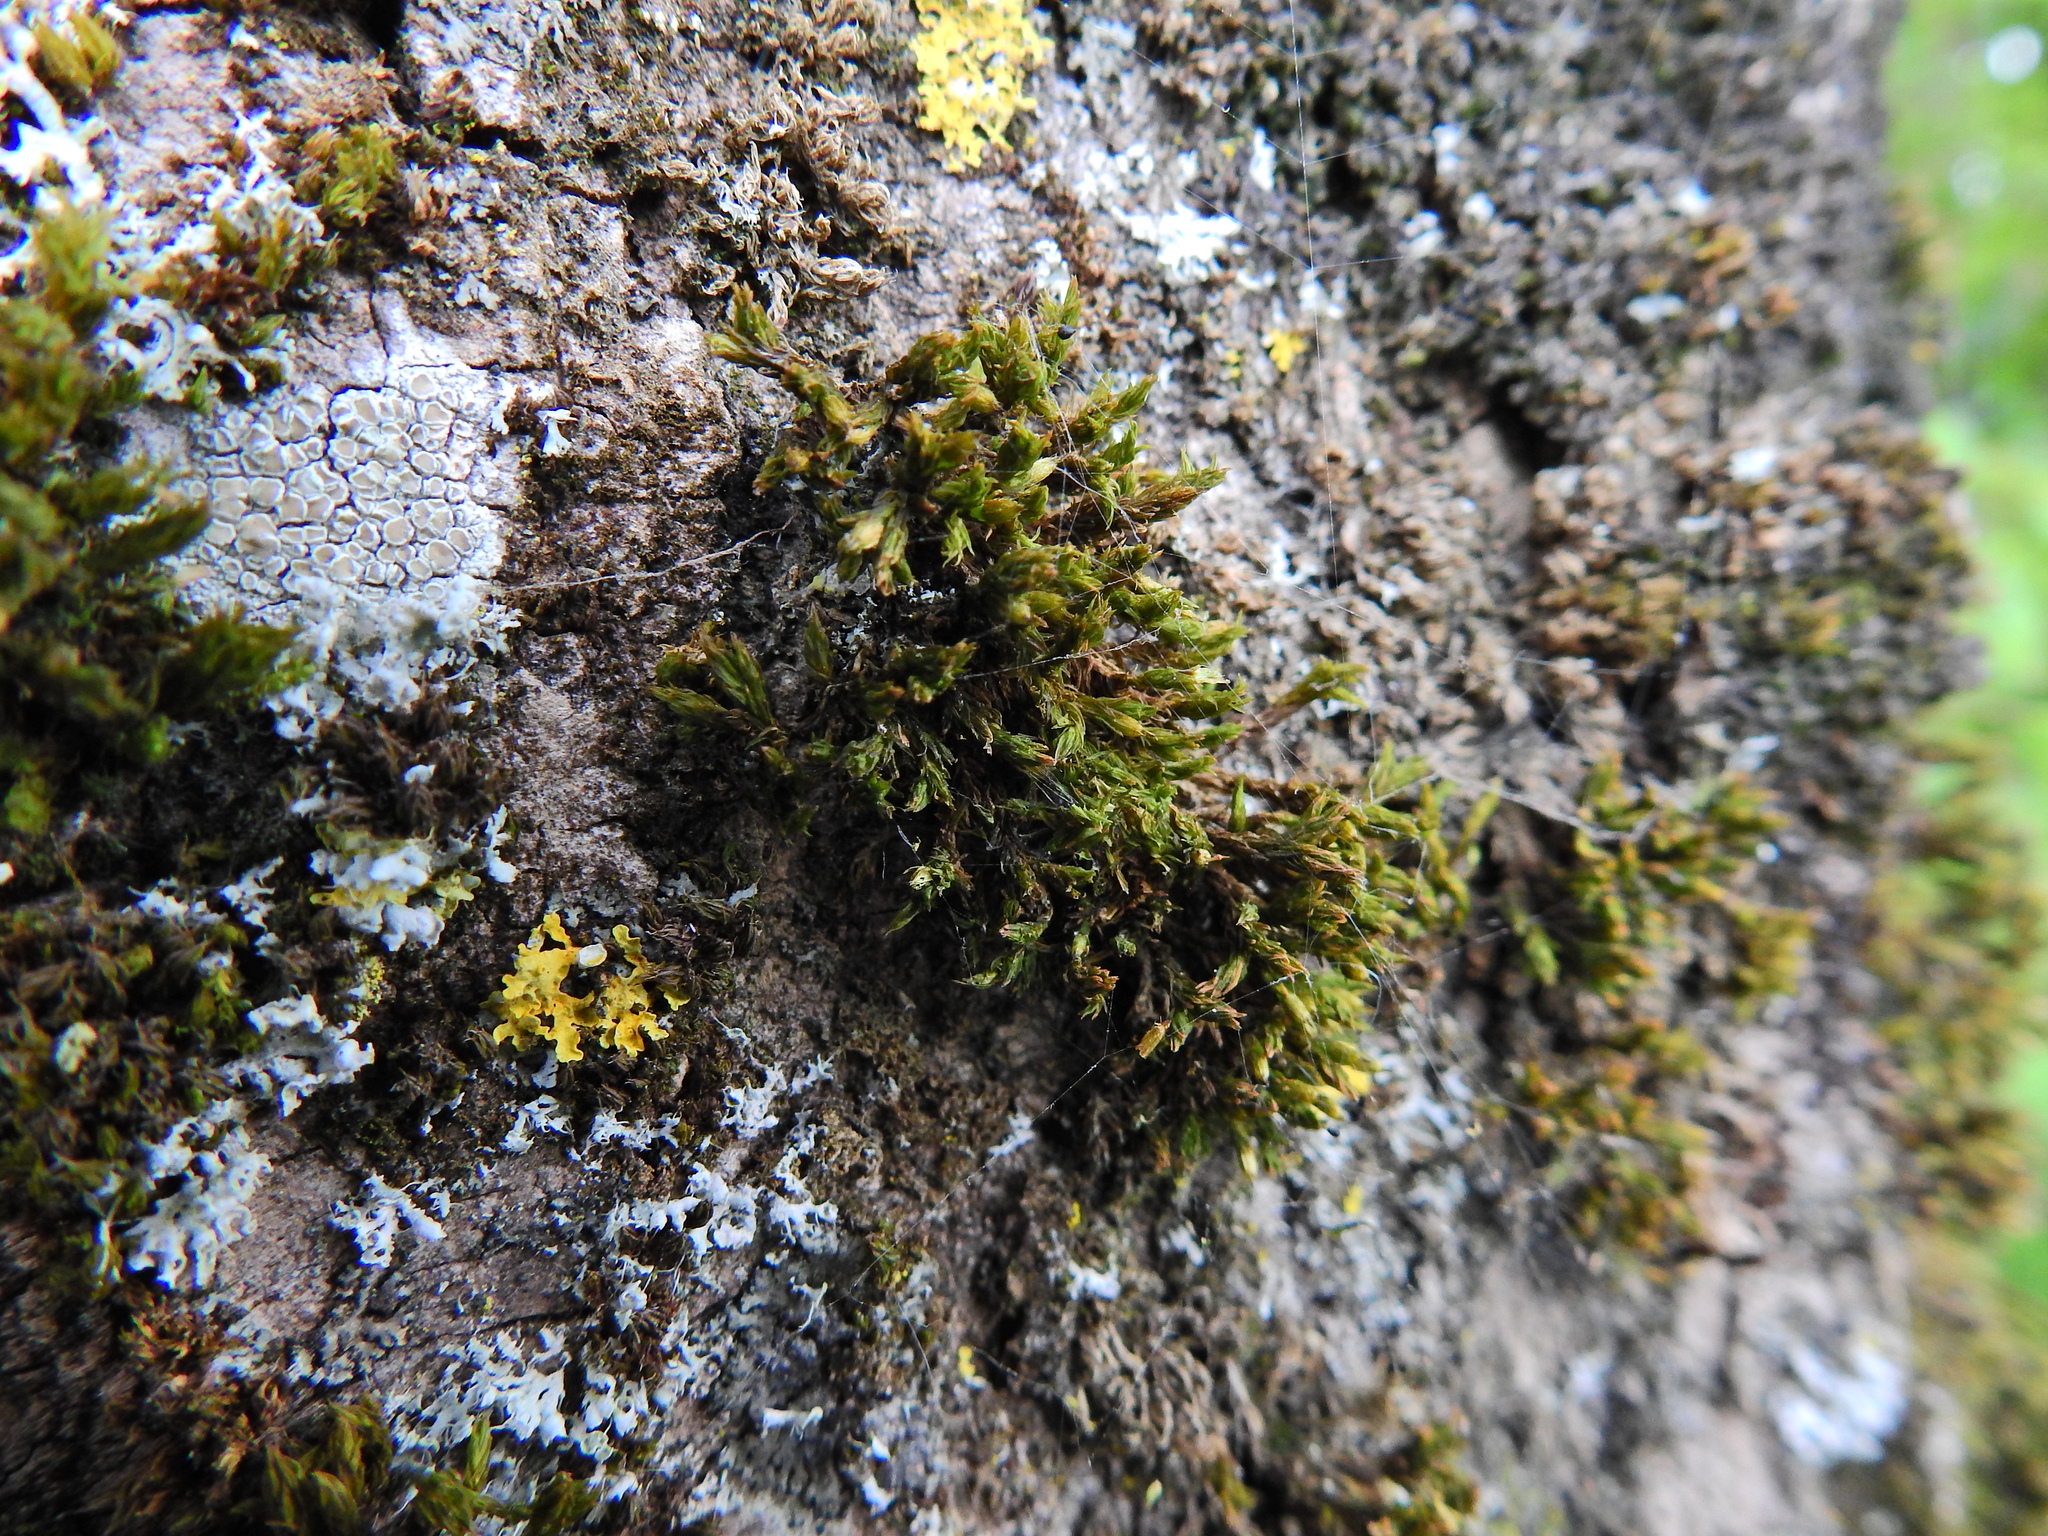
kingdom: Plantae
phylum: Bryophyta
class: Bryopsida
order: Orthotrichales
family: Orthotrichaceae
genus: Lewinskya
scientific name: Lewinskya affinis
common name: Wood bristle-moss
